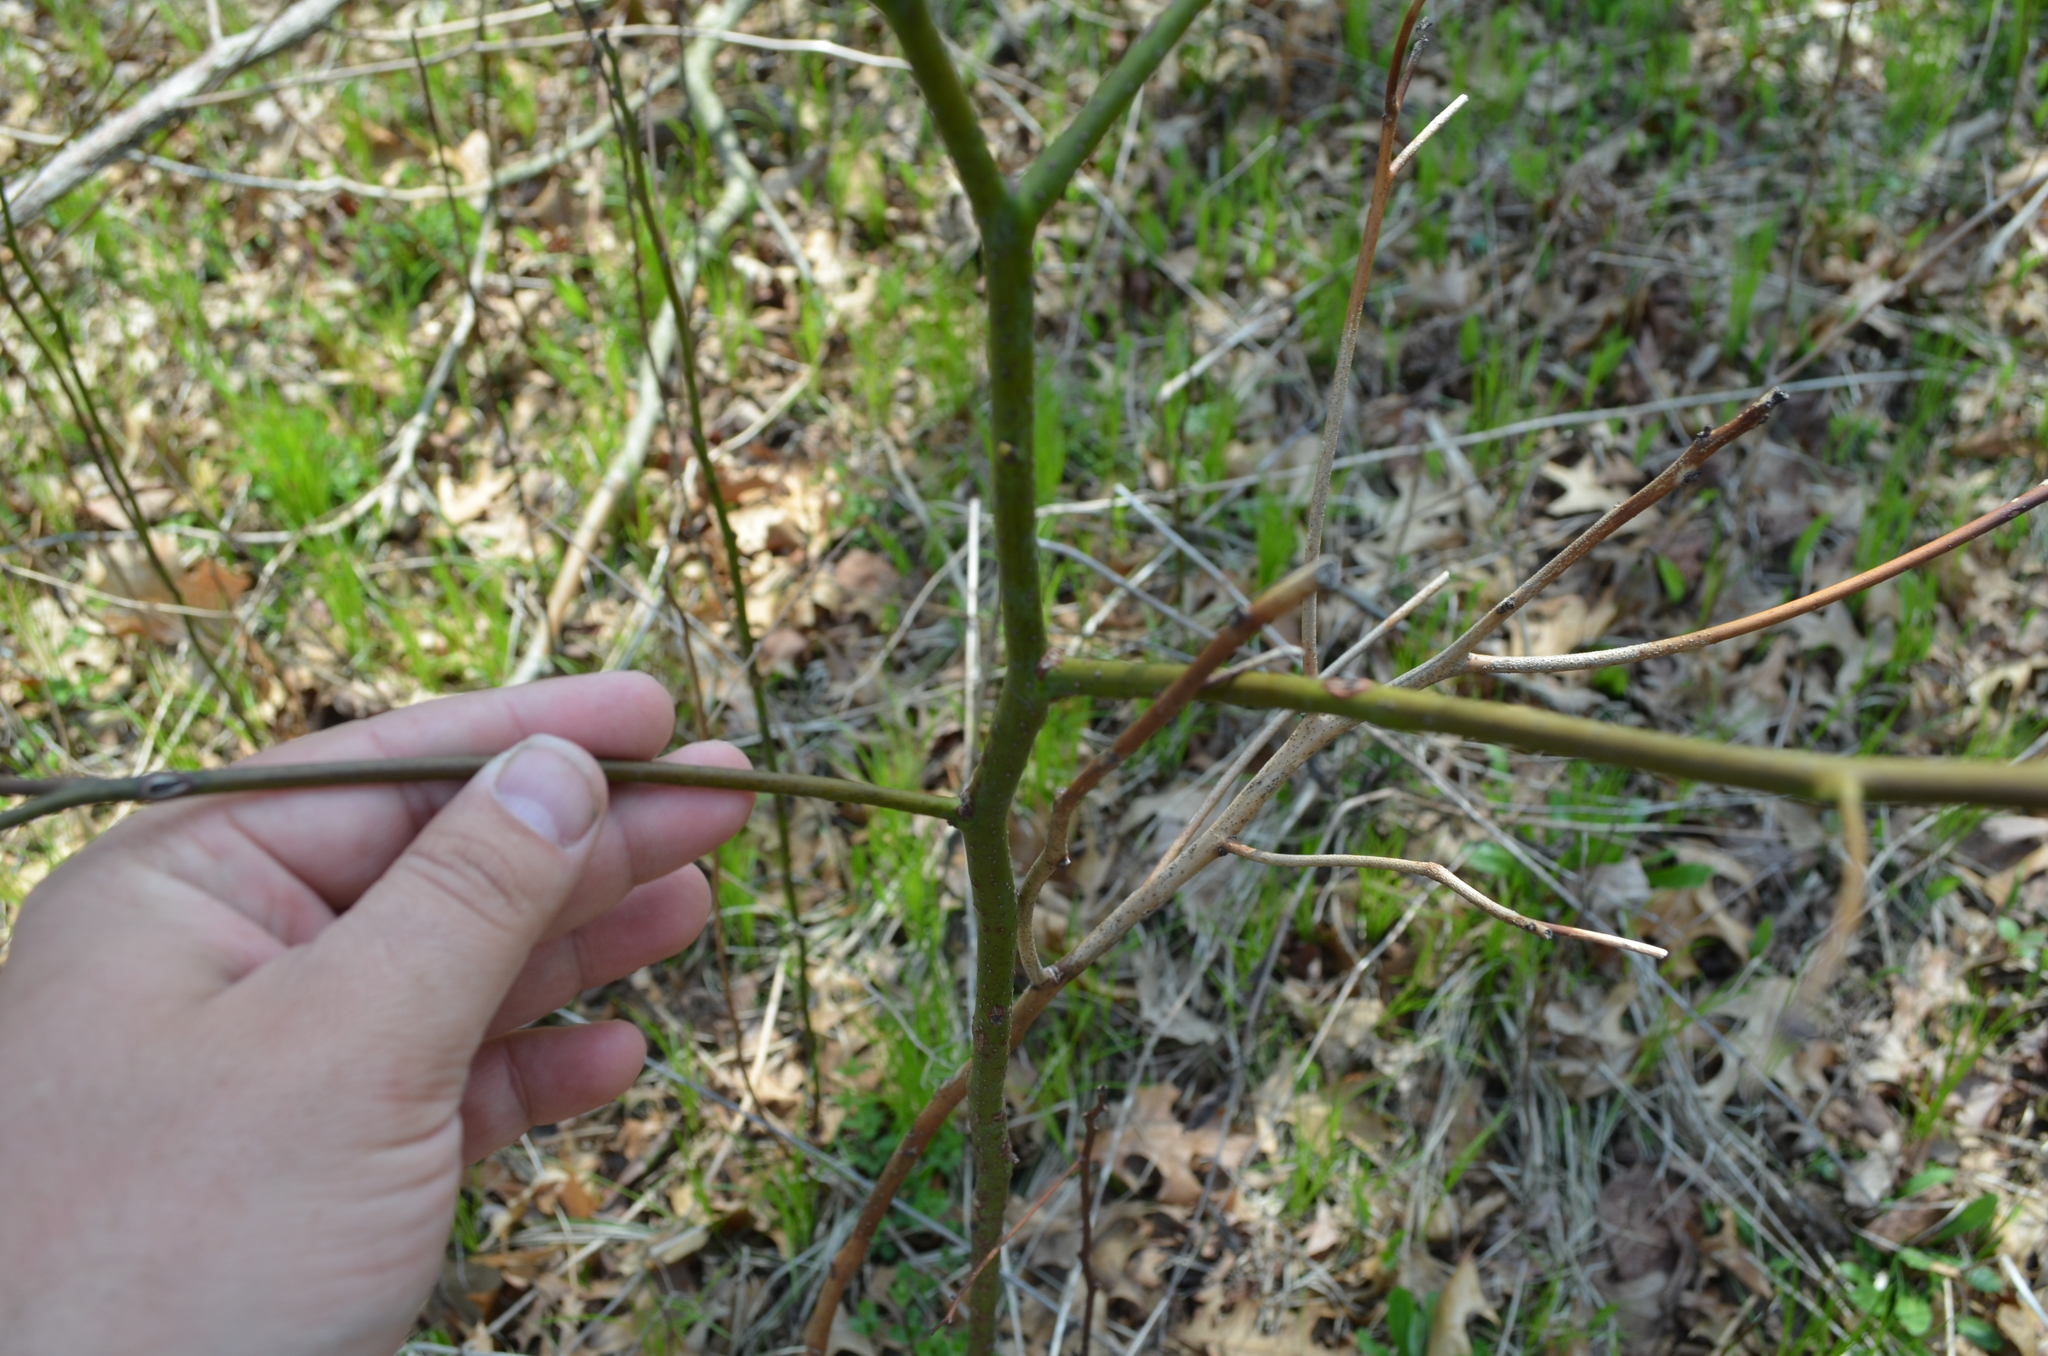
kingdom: Plantae
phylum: Tracheophyta
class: Magnoliopsida
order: Laurales
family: Lauraceae
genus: Sassafras
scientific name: Sassafras albidum
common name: Sassafras
